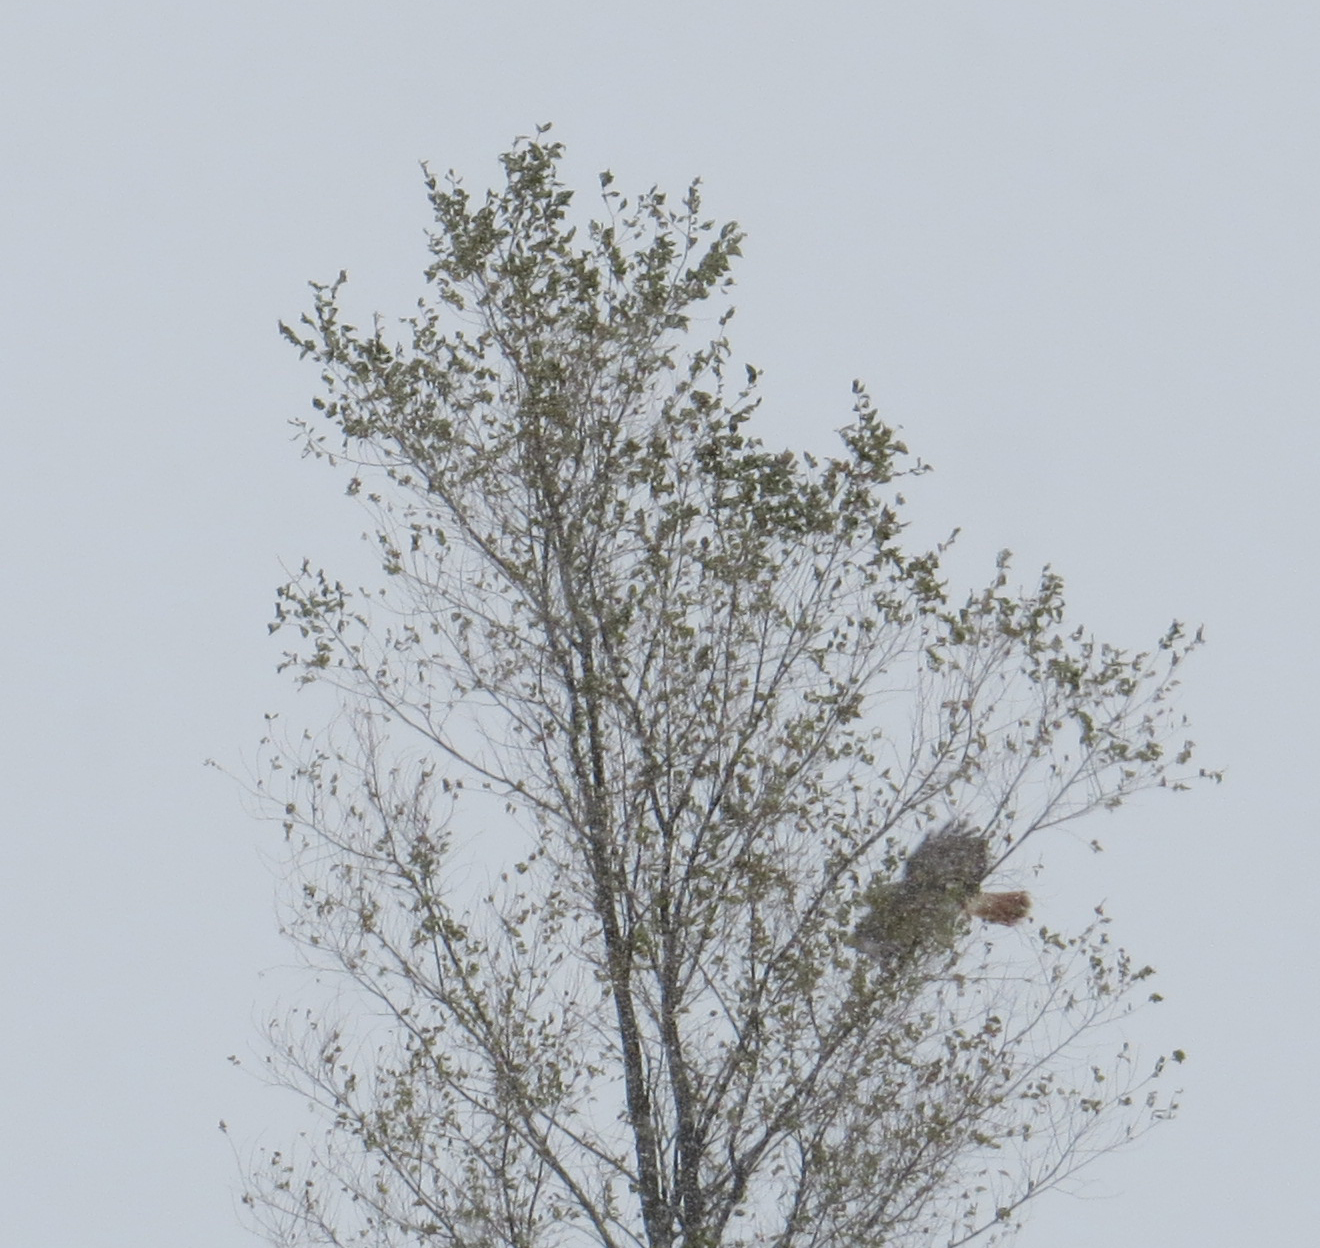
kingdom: Animalia
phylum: Chordata
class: Aves
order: Accipitriformes
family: Accipitridae
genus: Buteo
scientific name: Buteo jamaicensis
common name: Red-tailed hawk
